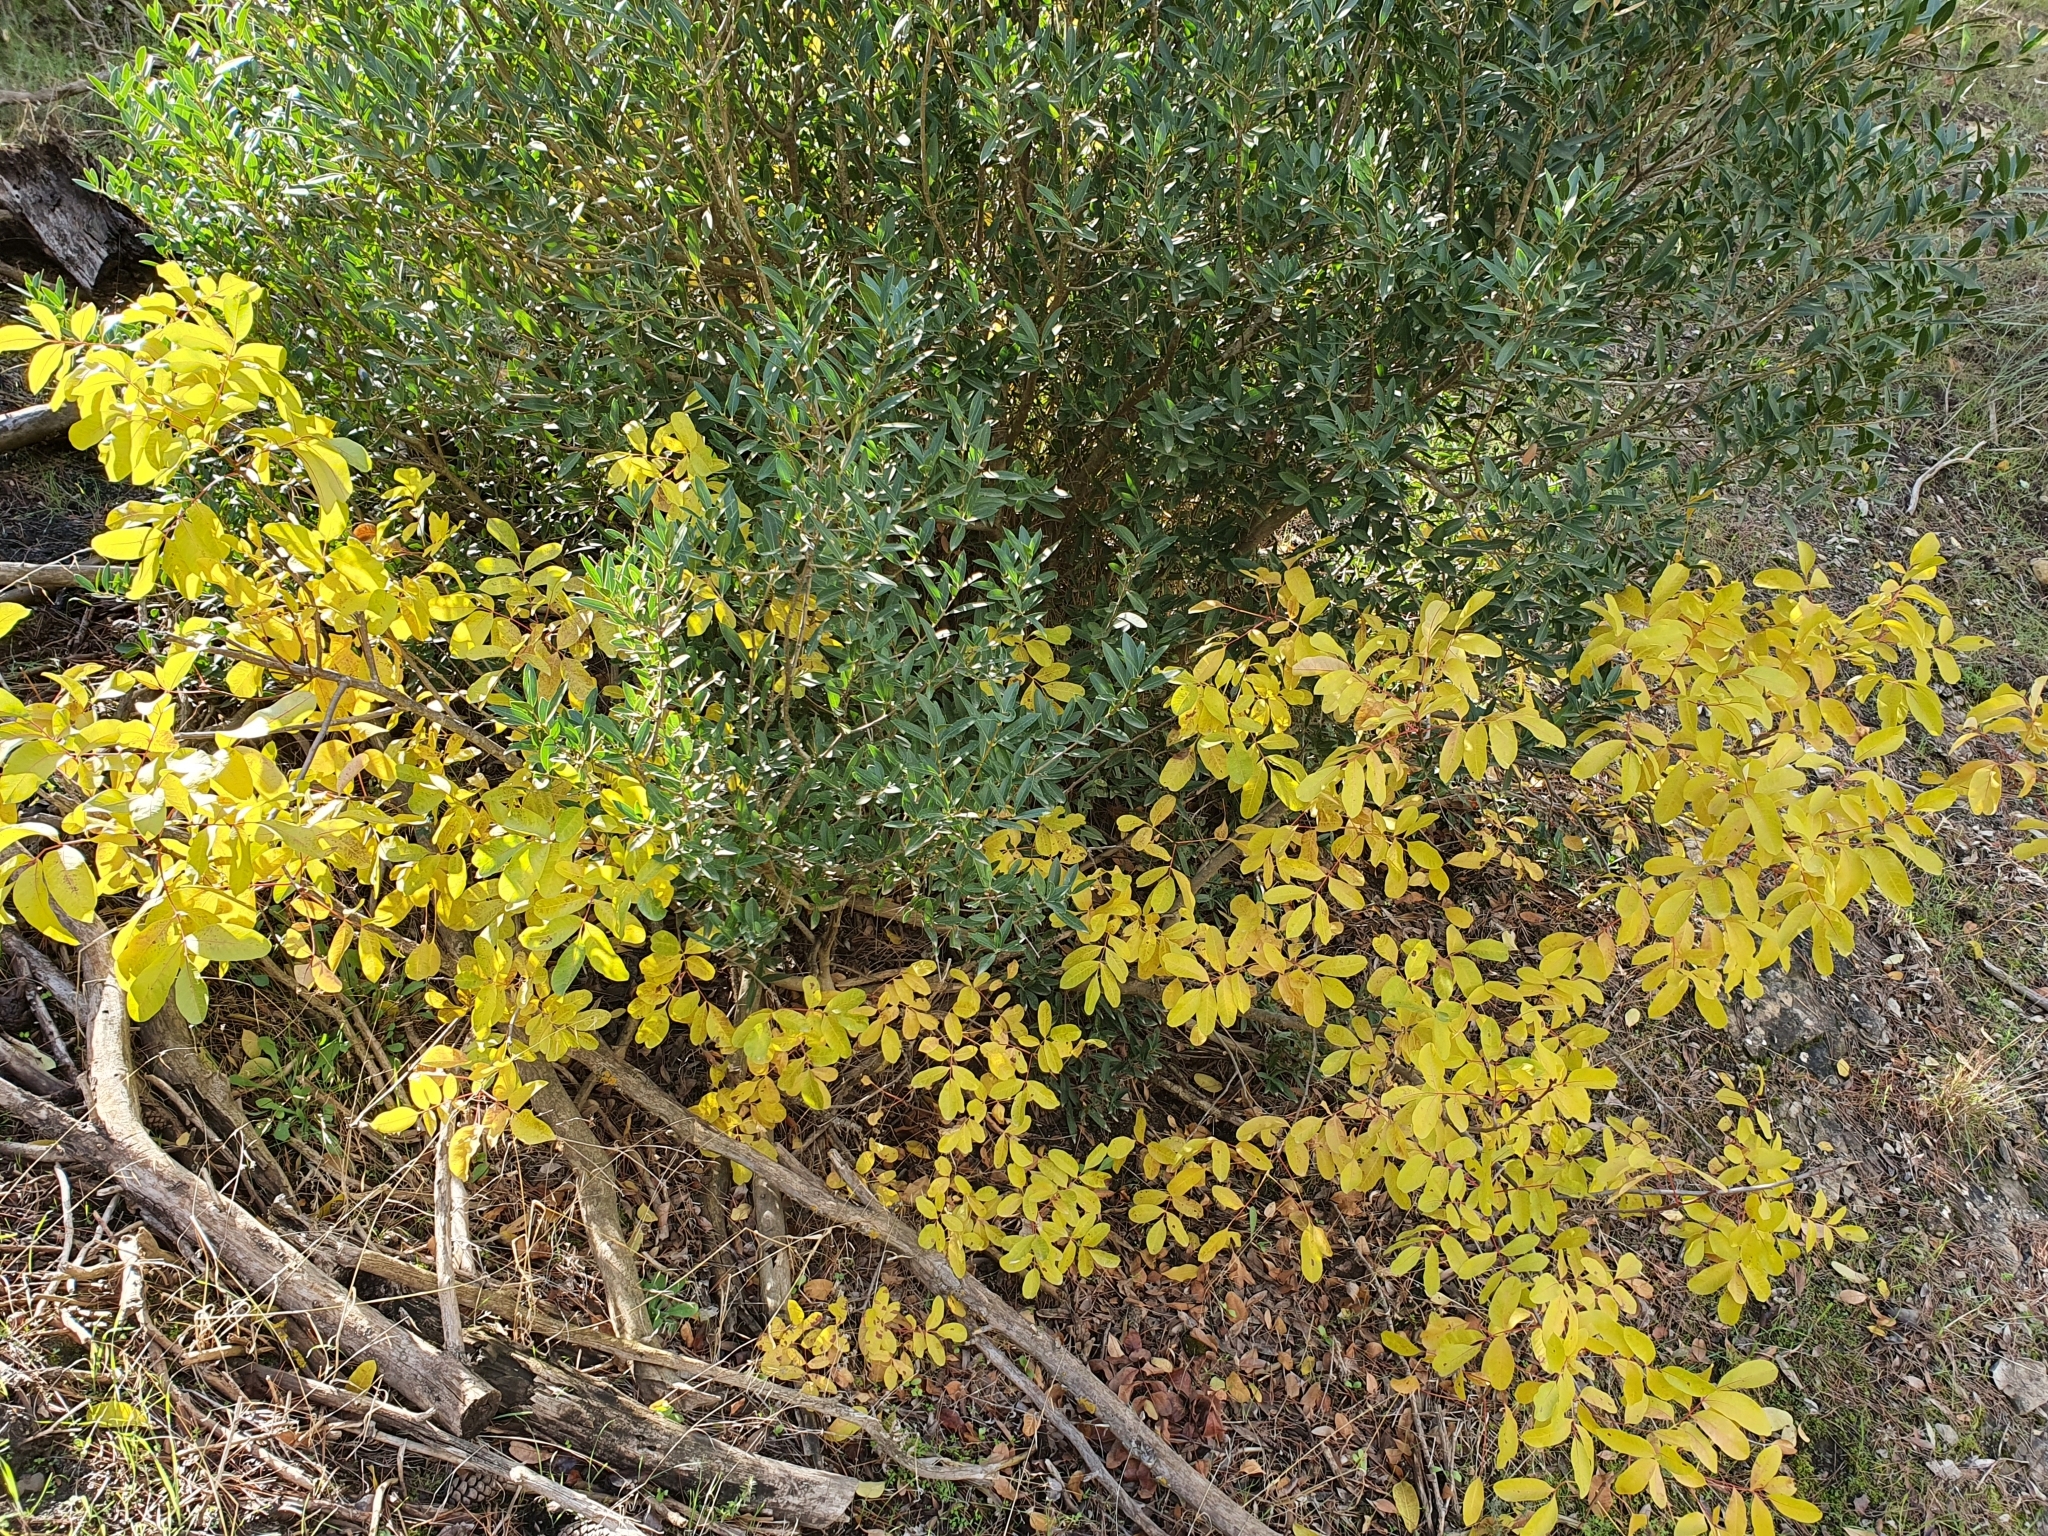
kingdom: Plantae
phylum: Tracheophyta
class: Magnoliopsida
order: Sapindales
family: Anacardiaceae
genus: Pistacia
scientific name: Pistacia terebinthus
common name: Terebinth
